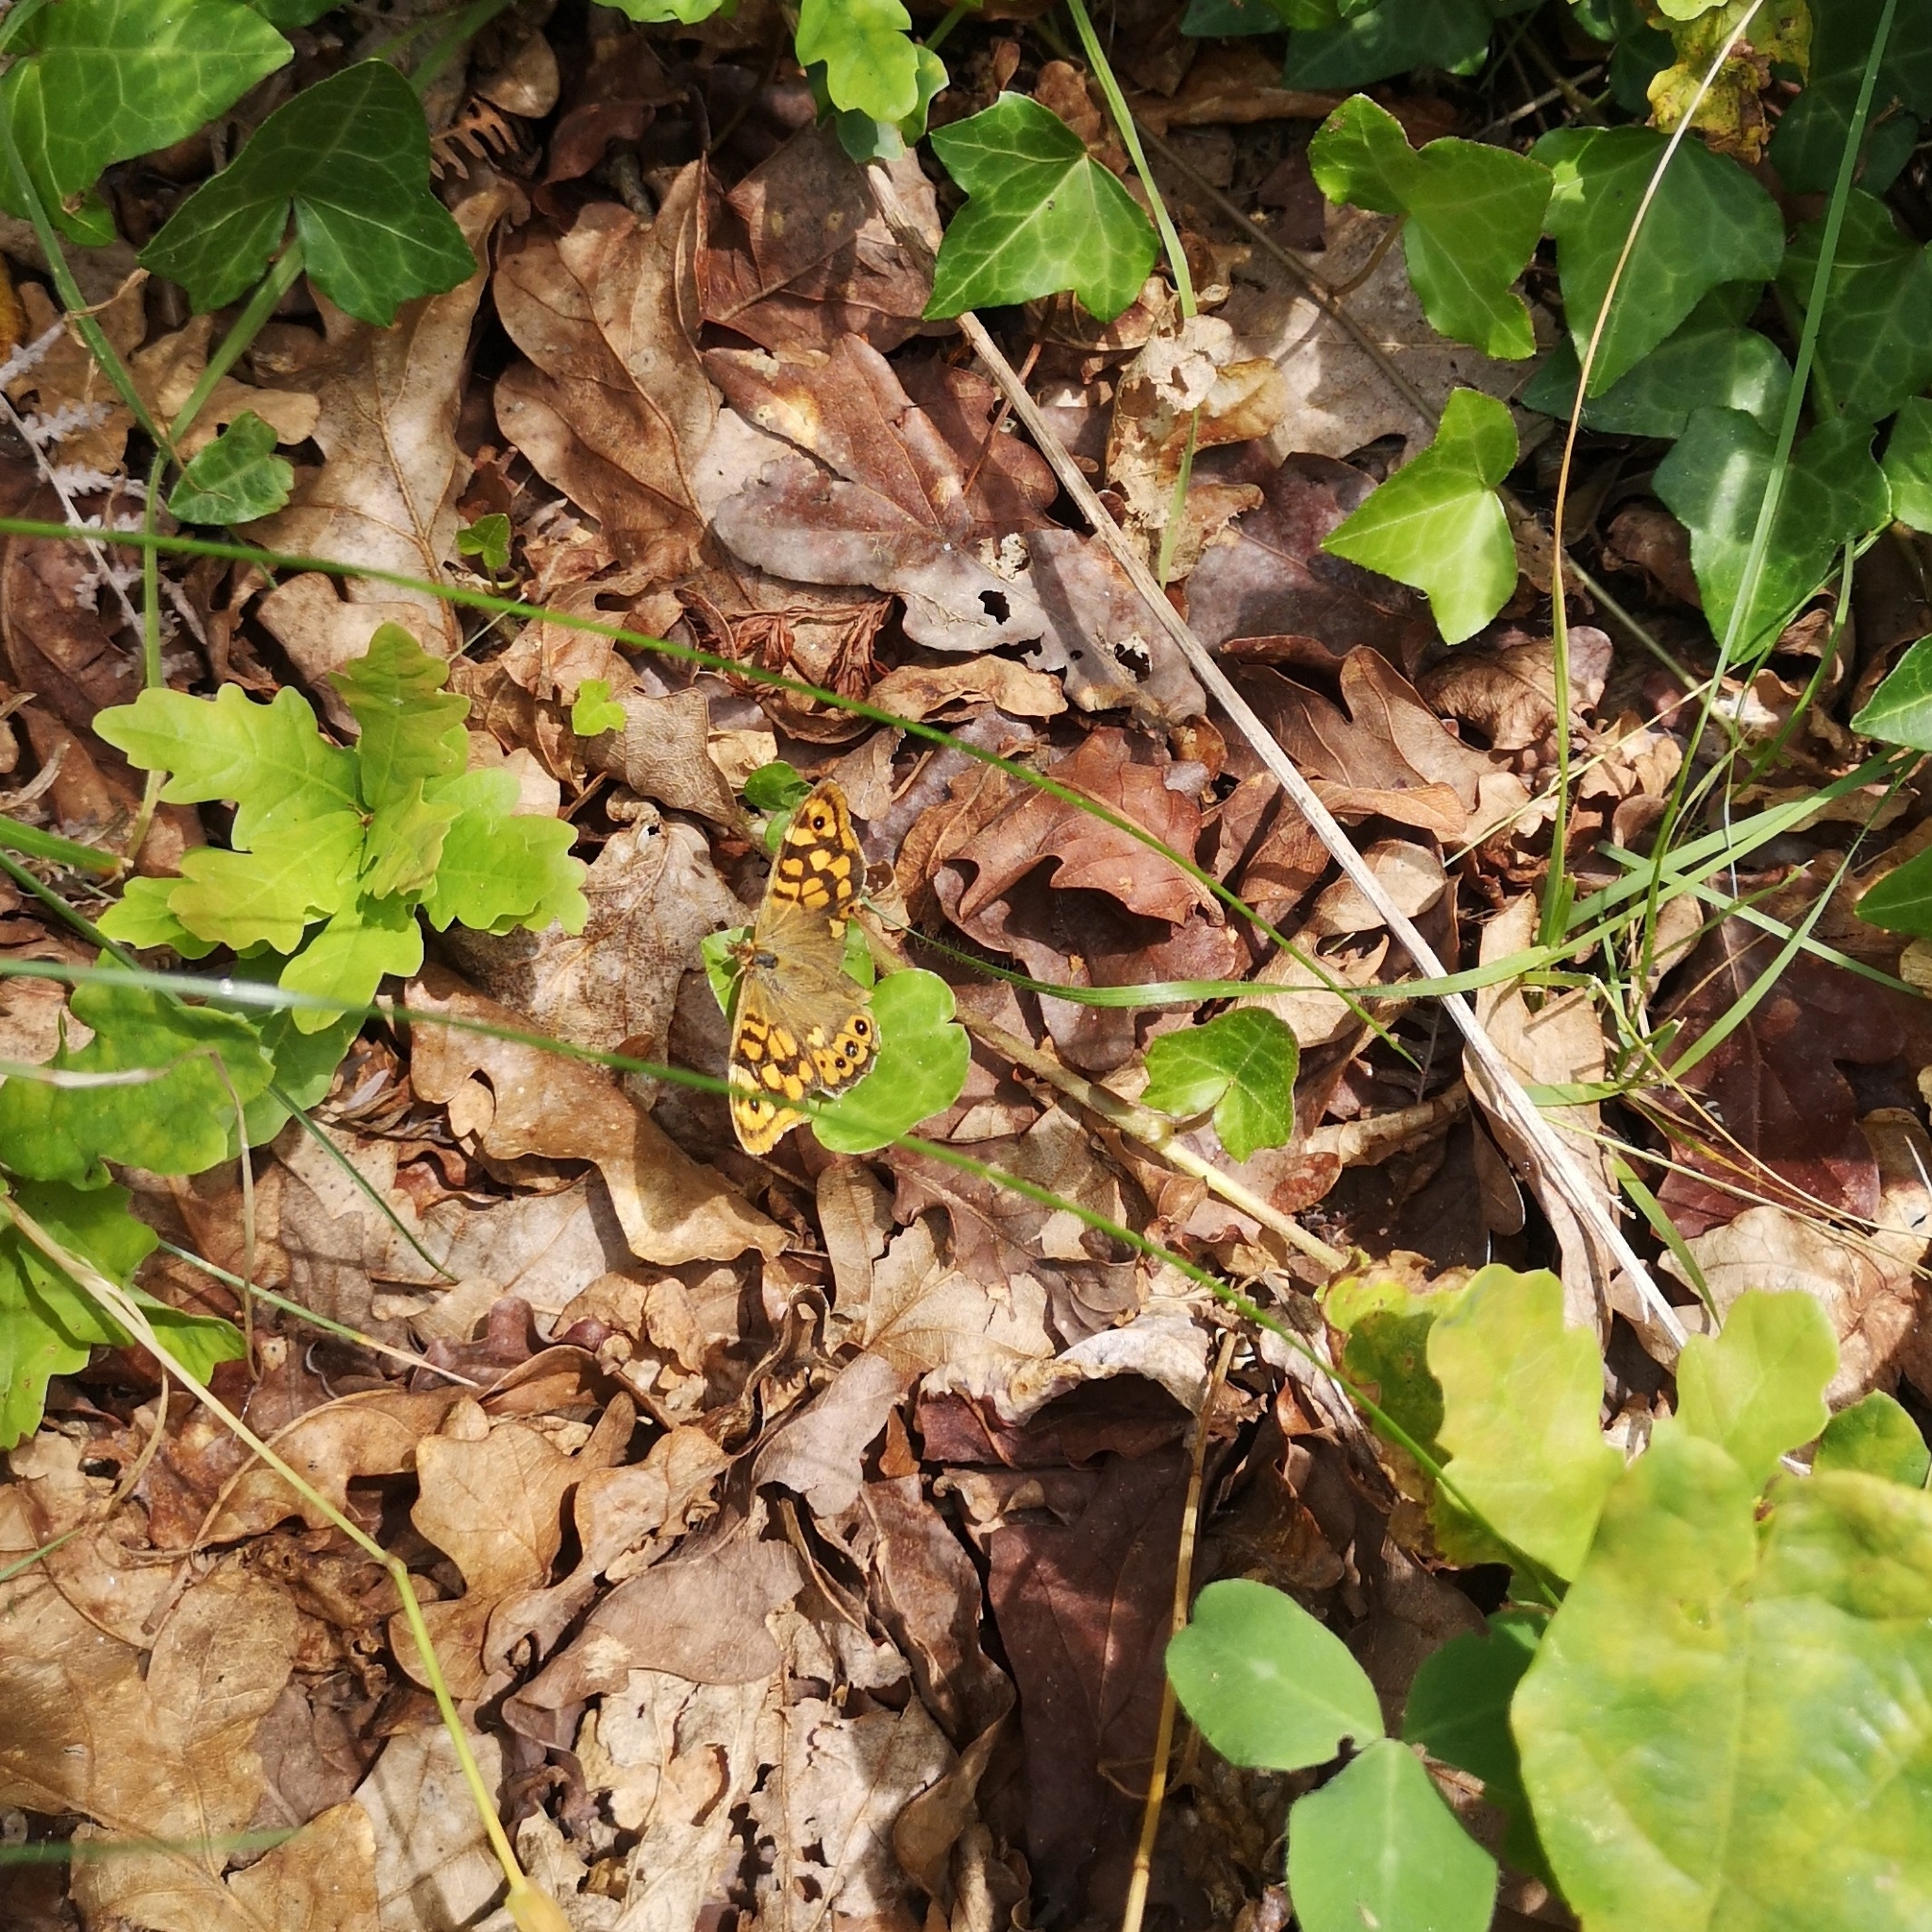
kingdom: Animalia
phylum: Arthropoda
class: Insecta
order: Lepidoptera
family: Nymphalidae
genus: Pararge
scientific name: Pararge aegeria
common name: Speckled wood
